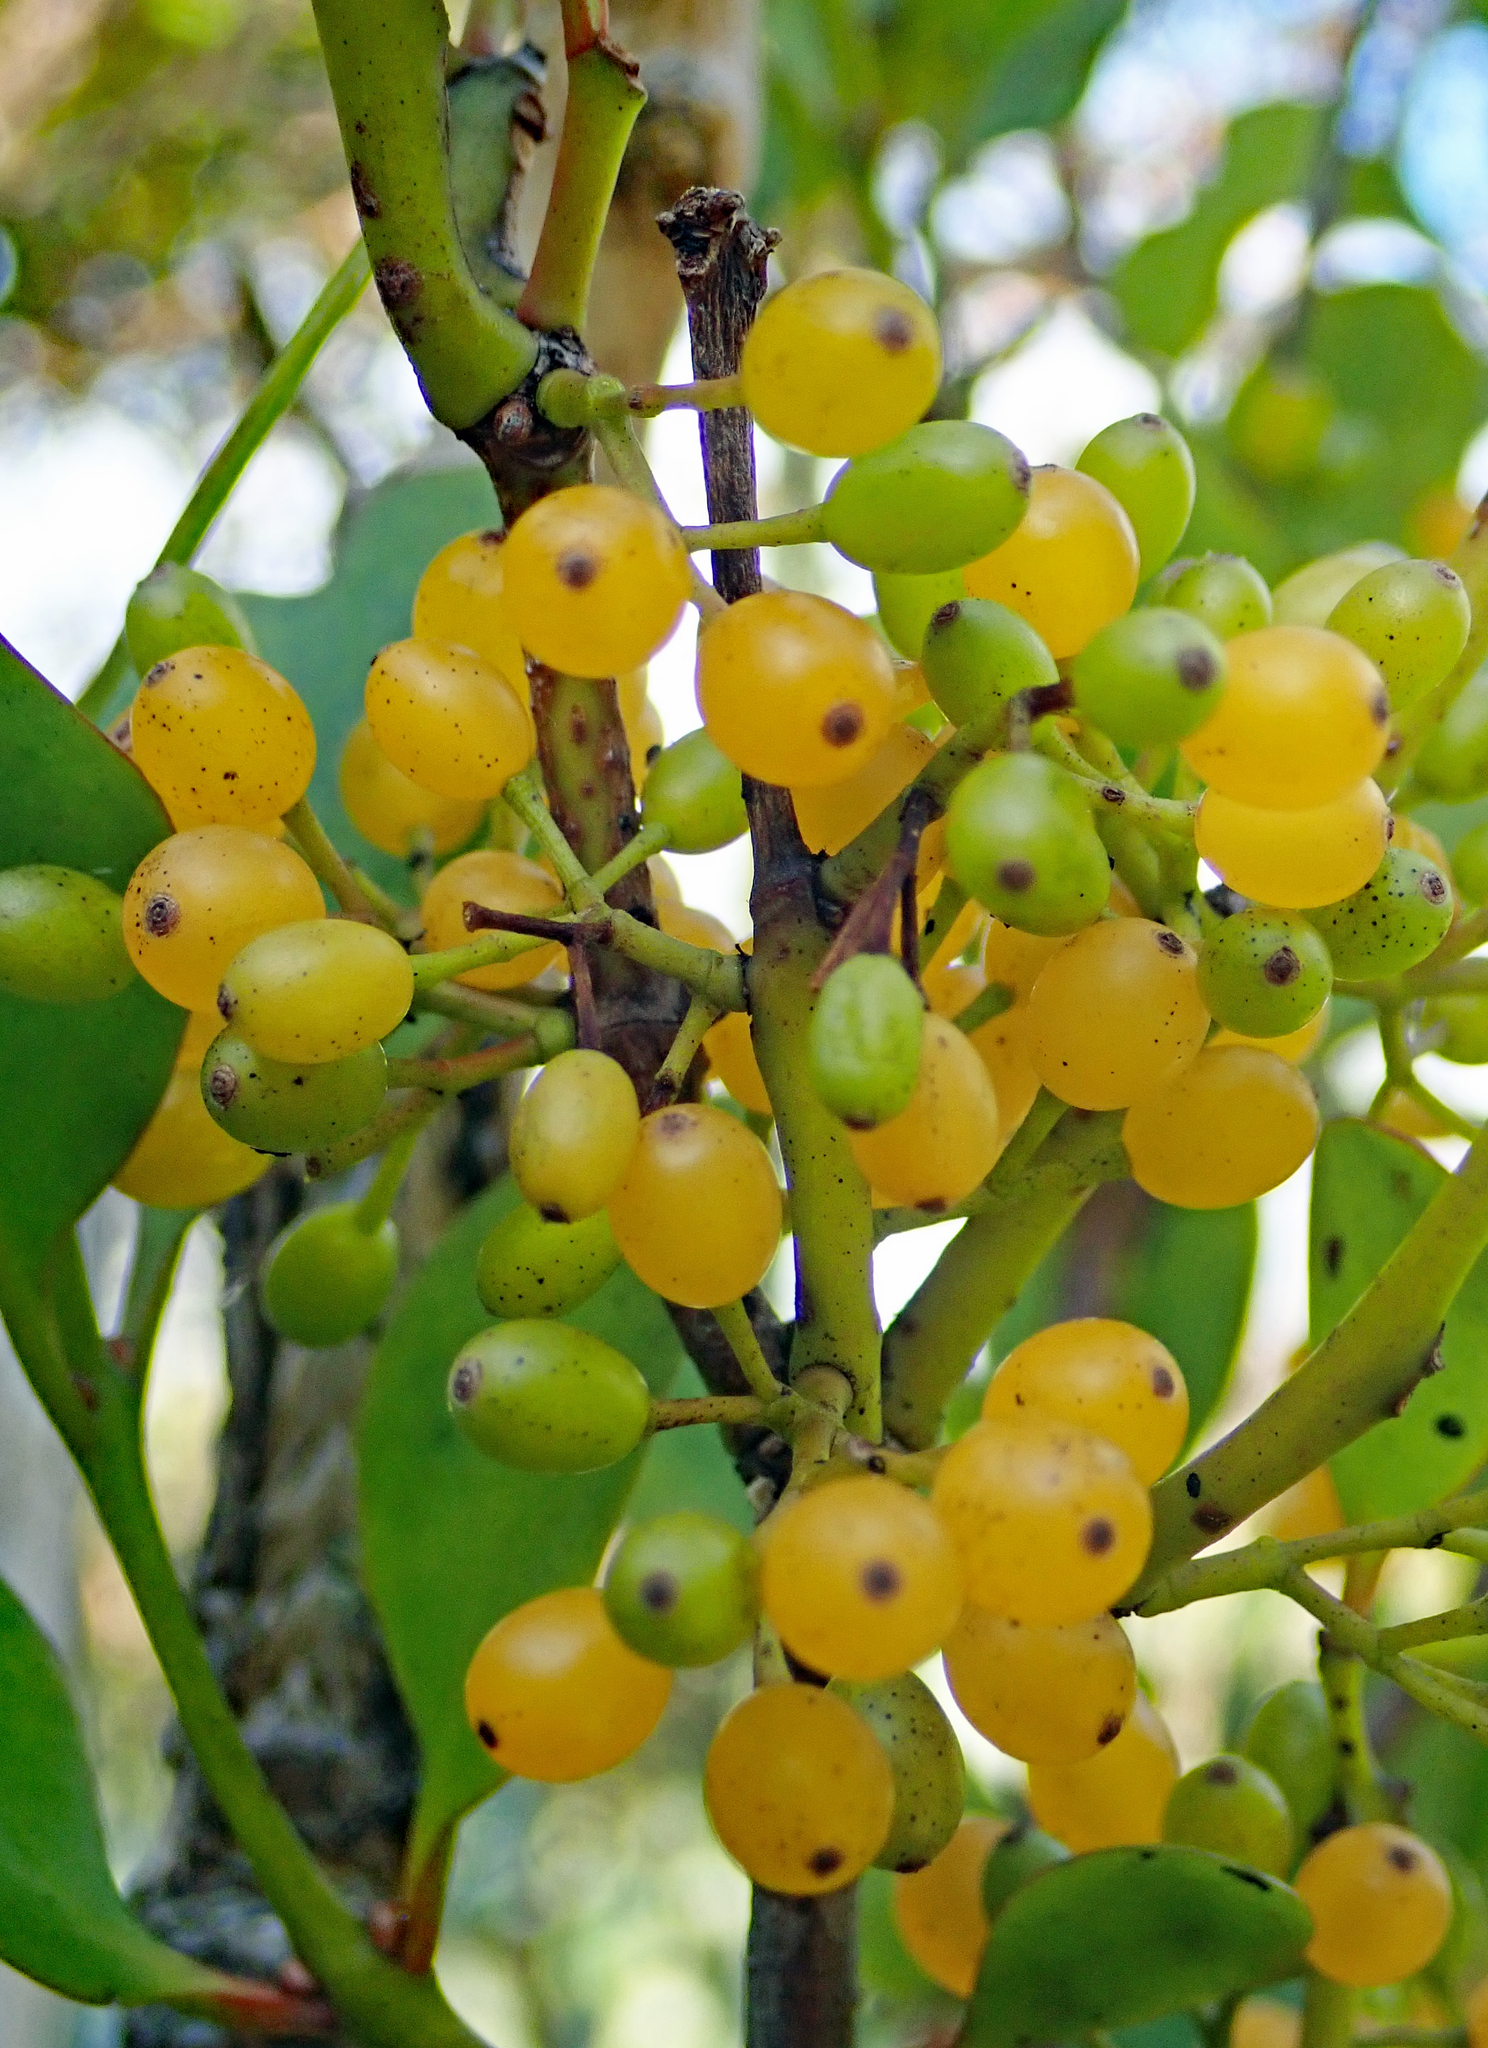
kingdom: Plantae
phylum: Tracheophyta
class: Magnoliopsida
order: Santalales
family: Loranthaceae
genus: Ileostylus
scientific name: Ileostylus micranthus
